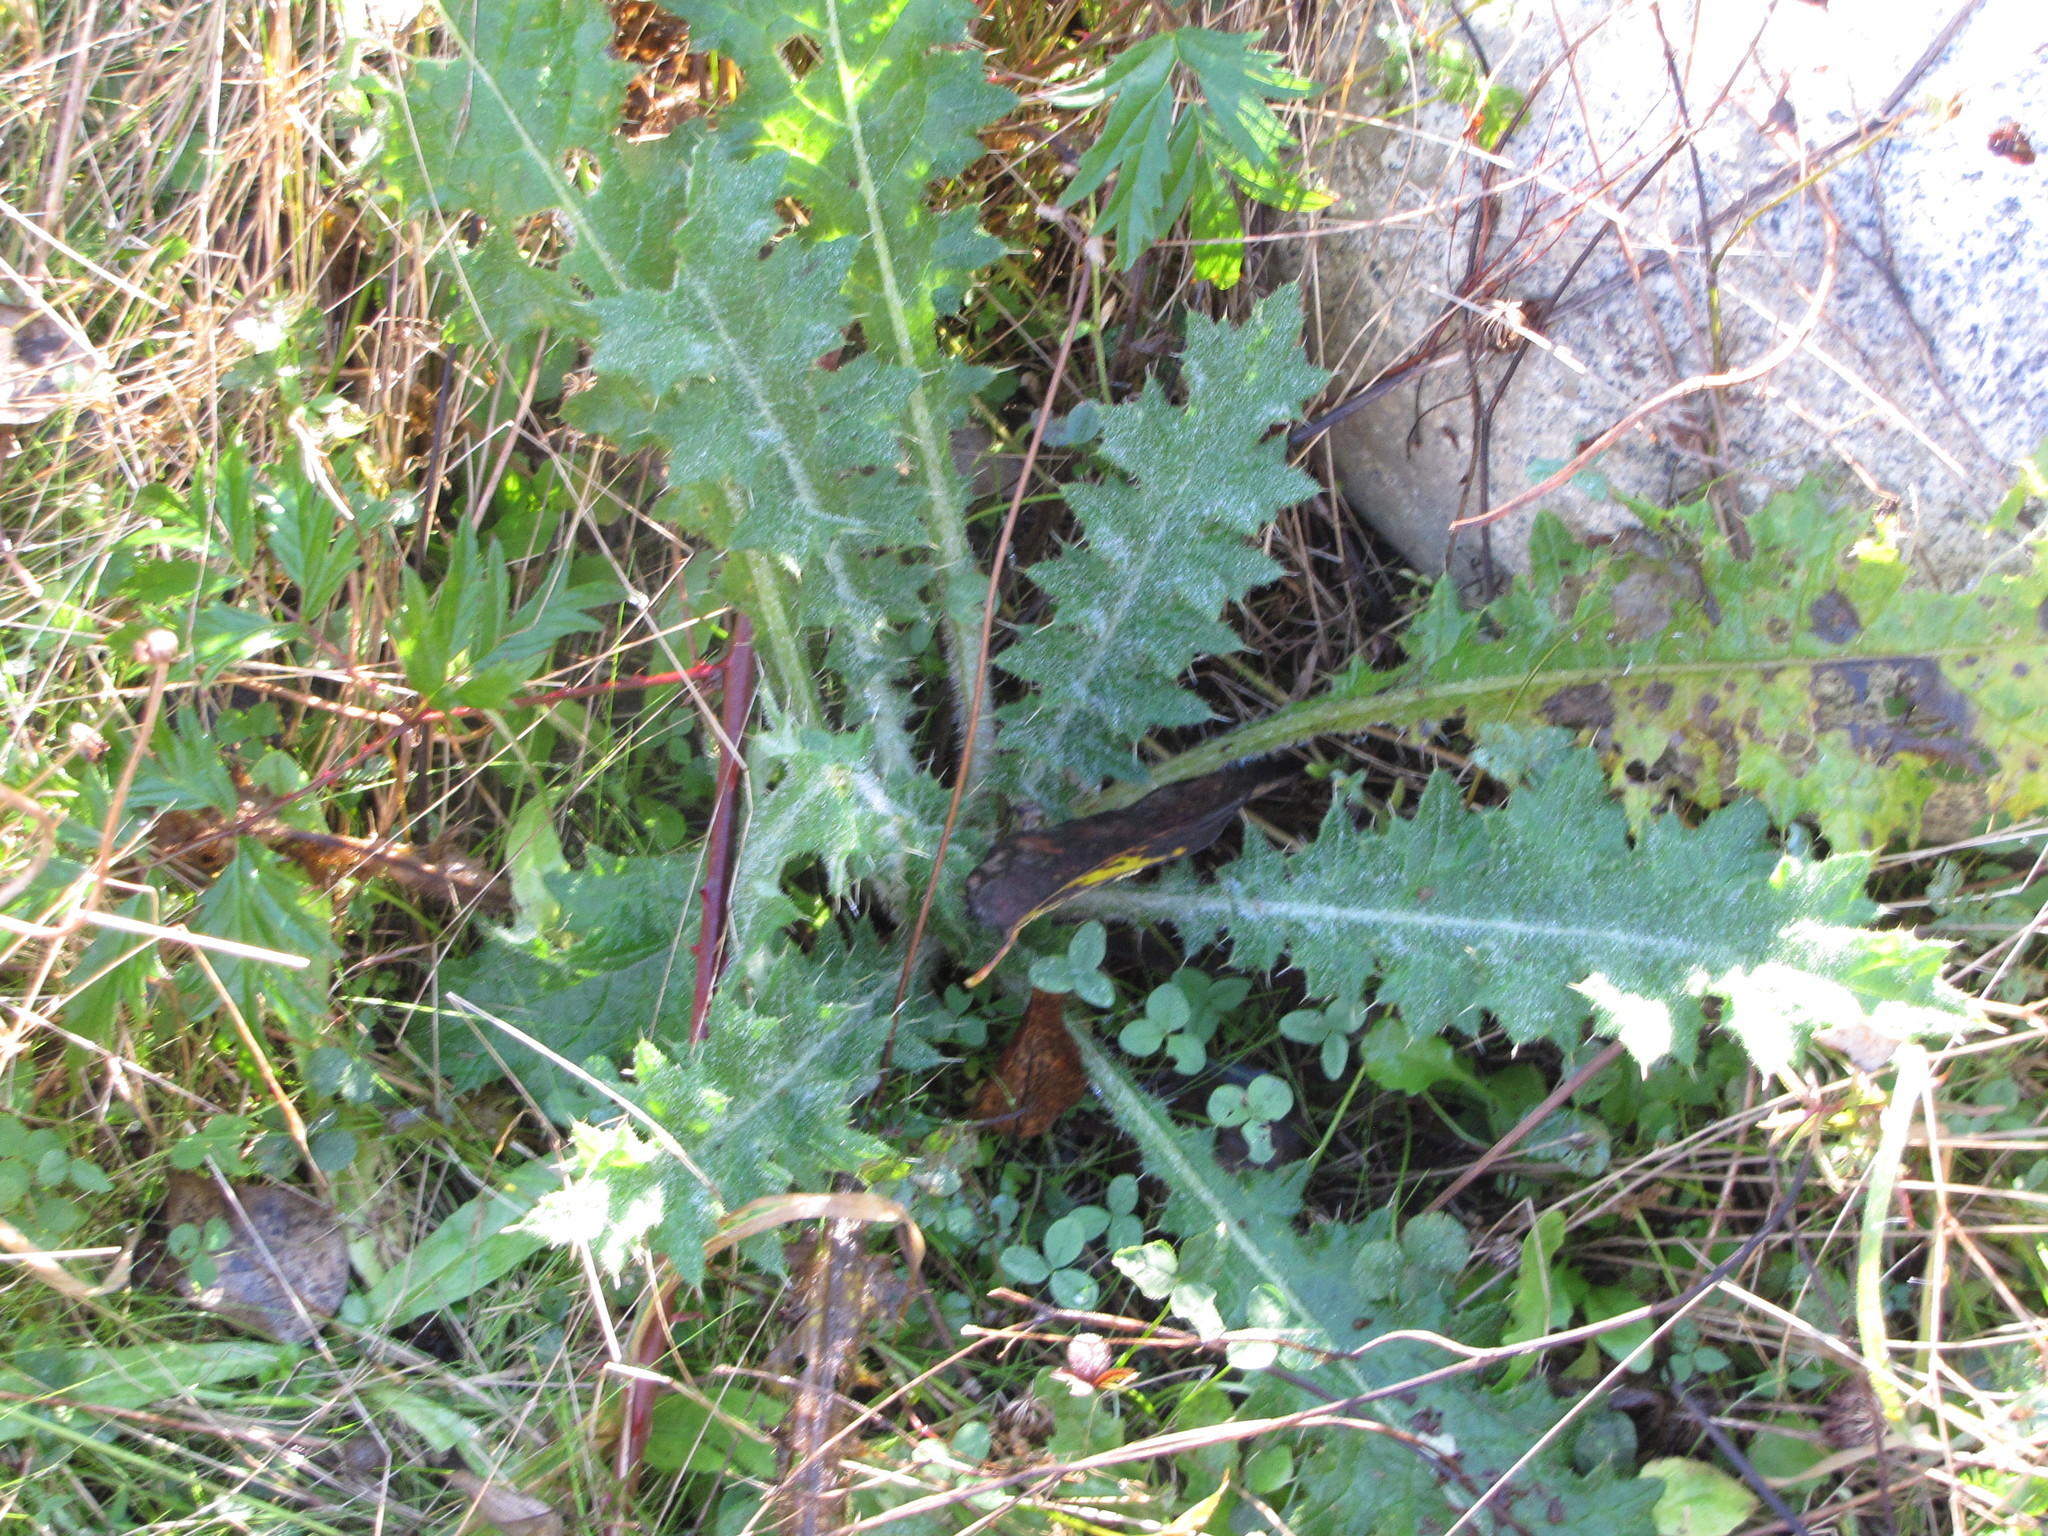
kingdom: Plantae
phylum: Tracheophyta
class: Magnoliopsida
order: Asterales
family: Asteraceae
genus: Cirsium
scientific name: Cirsium vulgare
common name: Bull thistle
